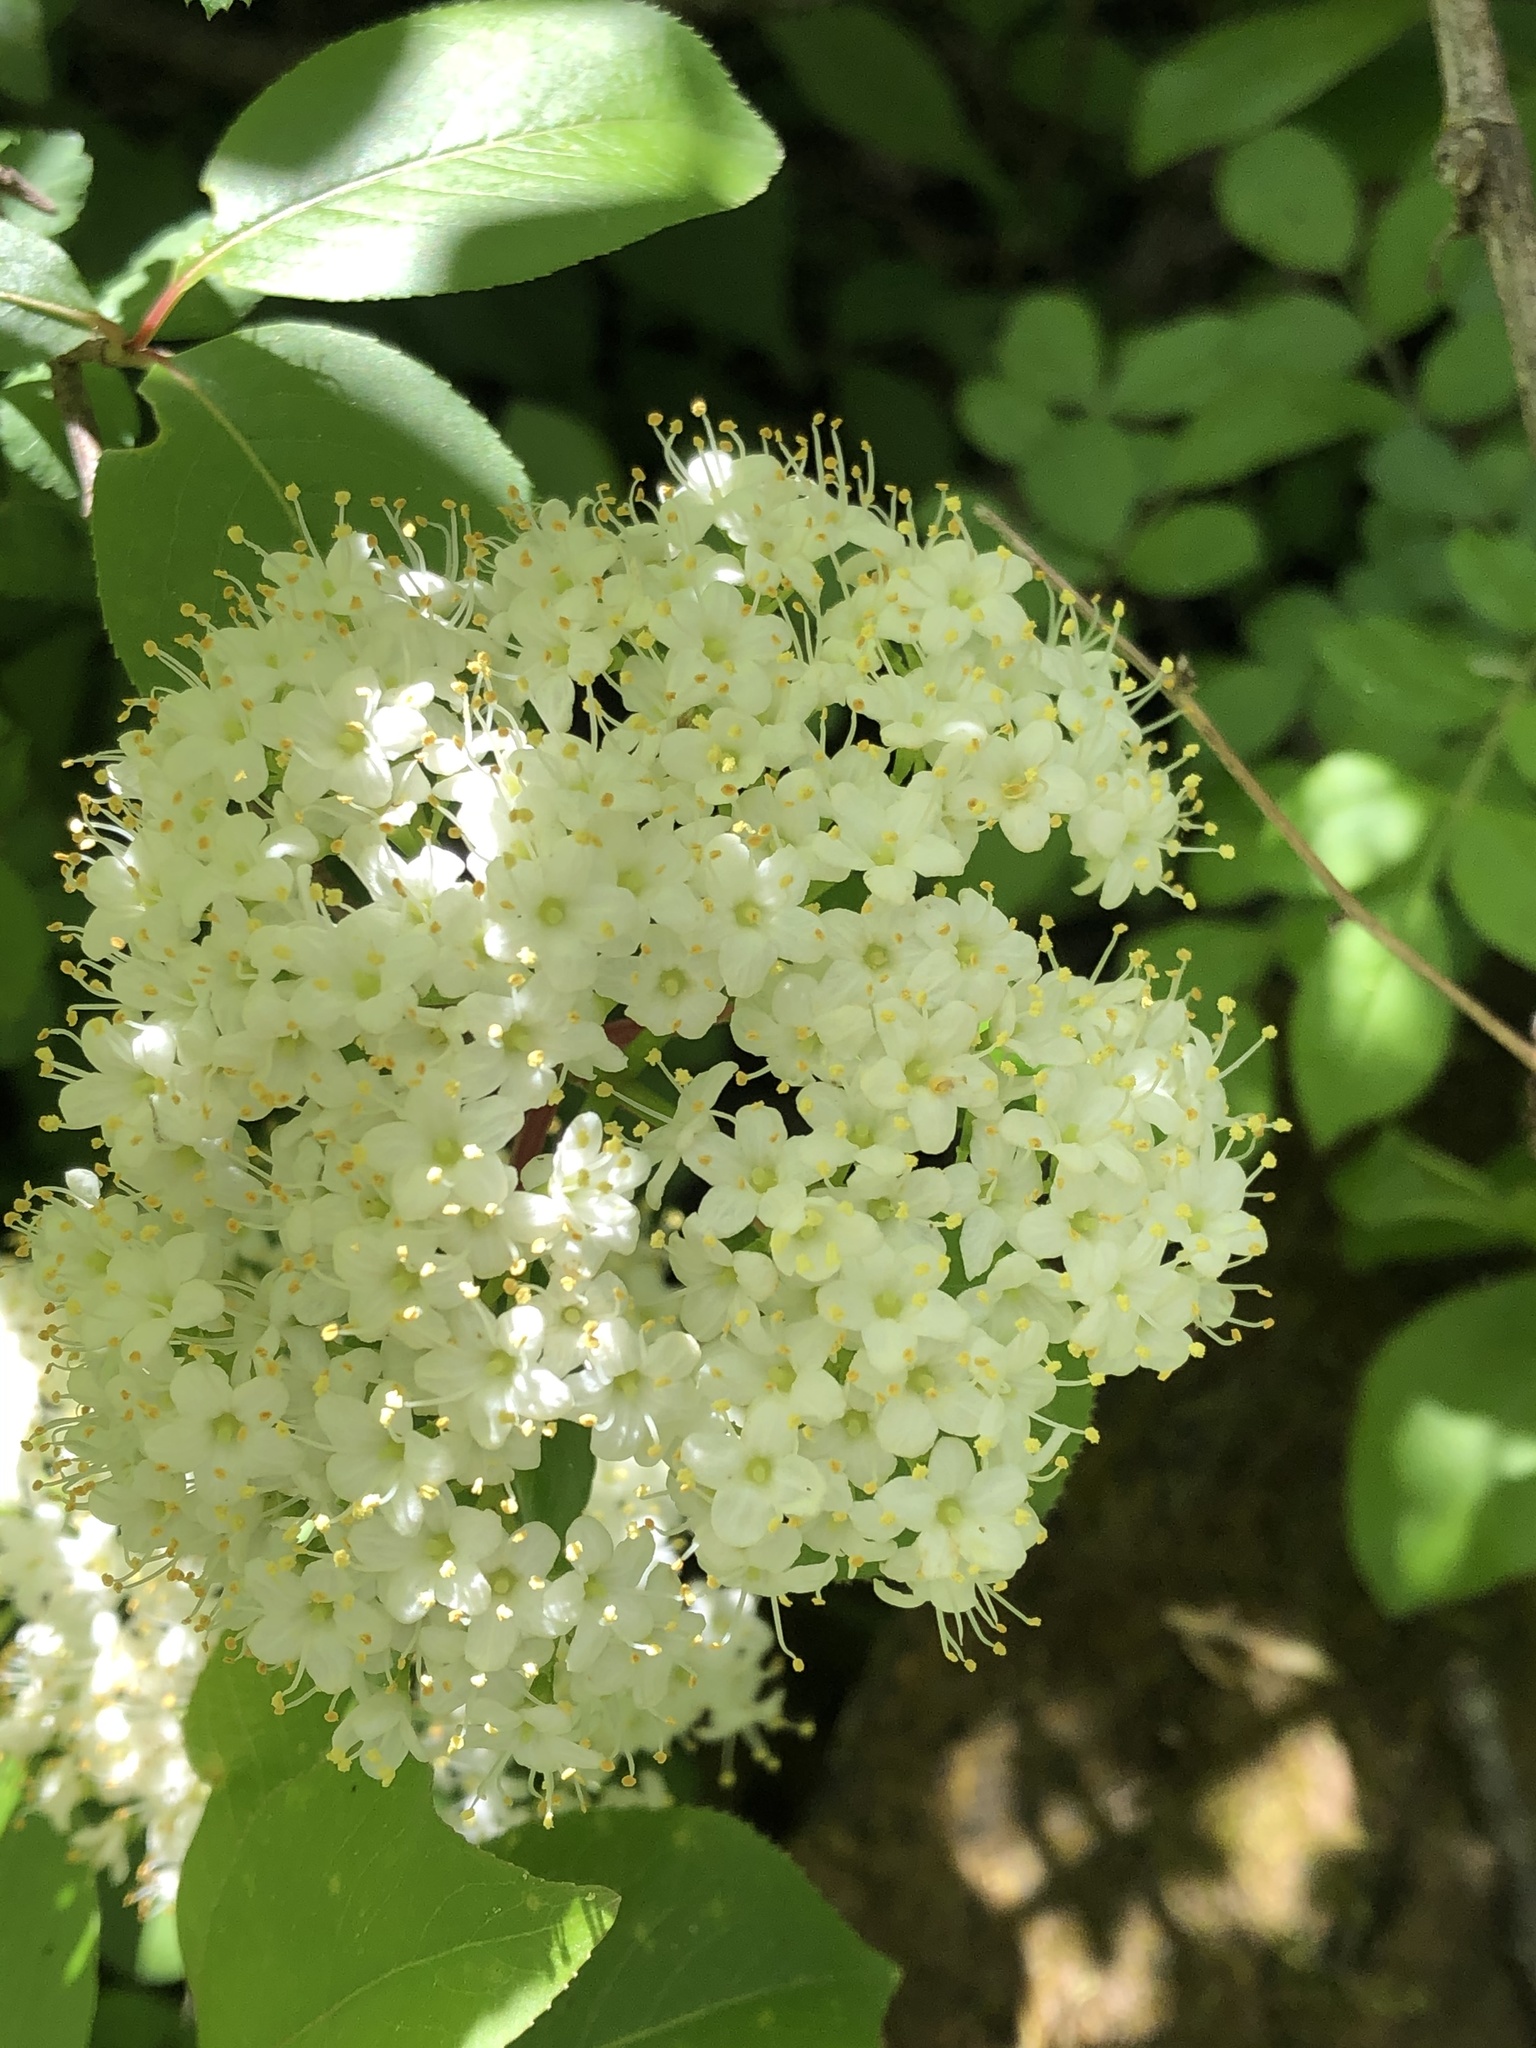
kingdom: Plantae
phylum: Tracheophyta
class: Magnoliopsida
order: Dipsacales
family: Viburnaceae
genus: Viburnum
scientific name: Viburnum prunifolium
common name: Black haw
